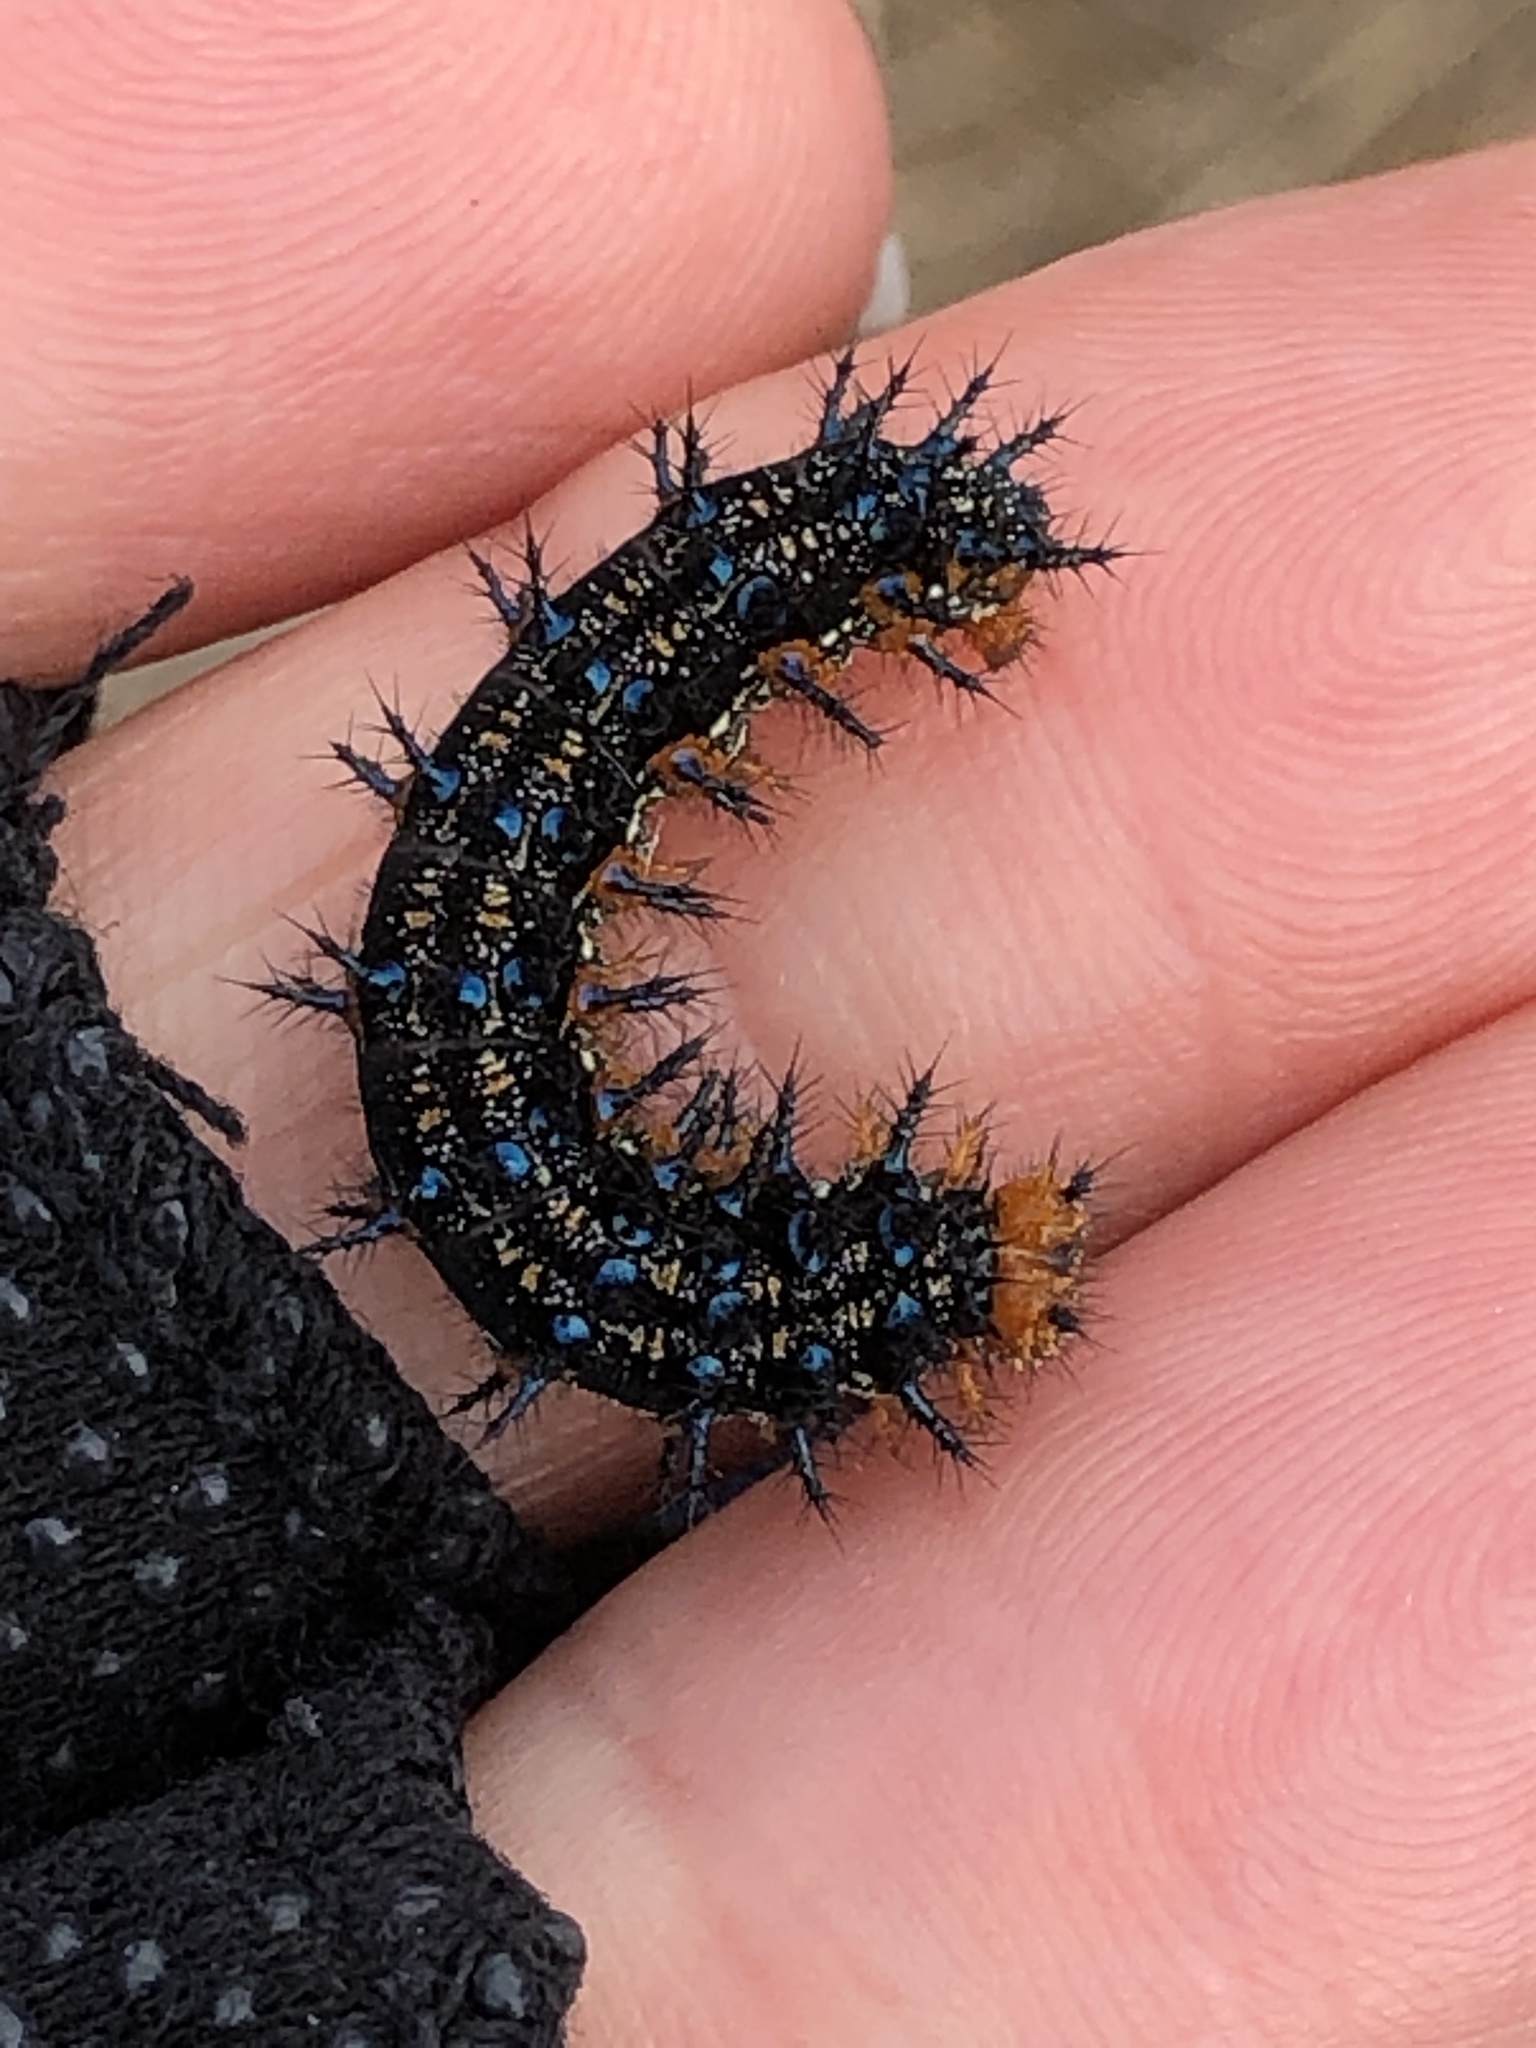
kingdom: Animalia
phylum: Arthropoda
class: Insecta
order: Lepidoptera
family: Nymphalidae
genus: Junonia
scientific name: Junonia grisea
